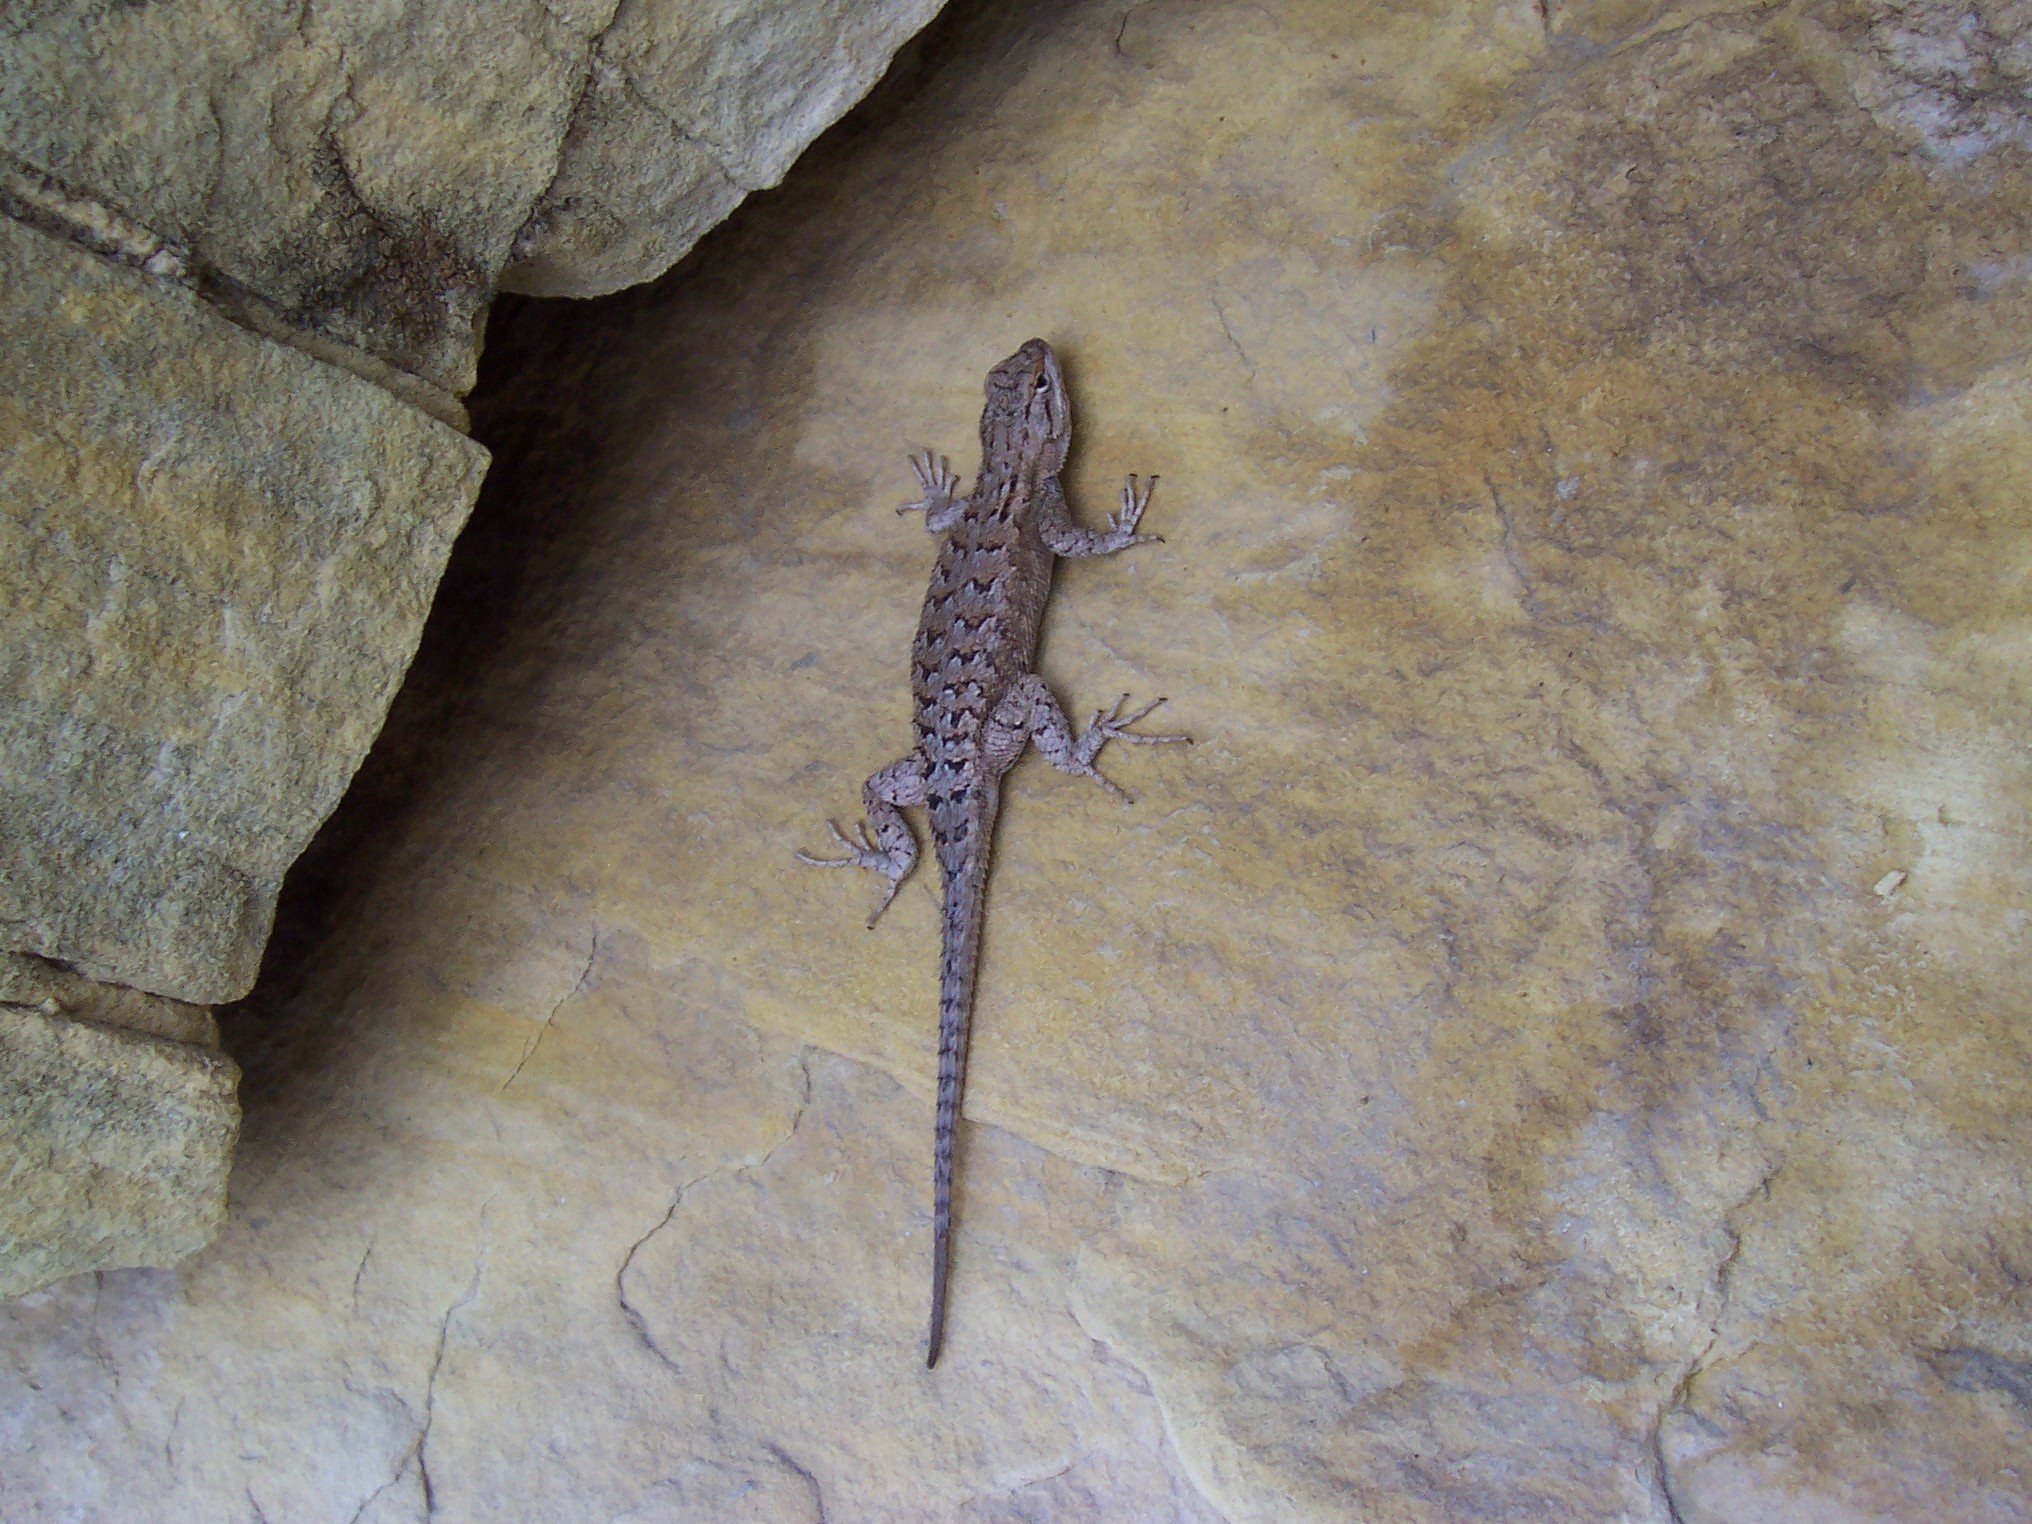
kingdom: Animalia
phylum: Chordata
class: Squamata
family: Phrynosomatidae
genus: Sceloporus
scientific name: Sceloporus tristichus
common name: Plateau fence lizard
